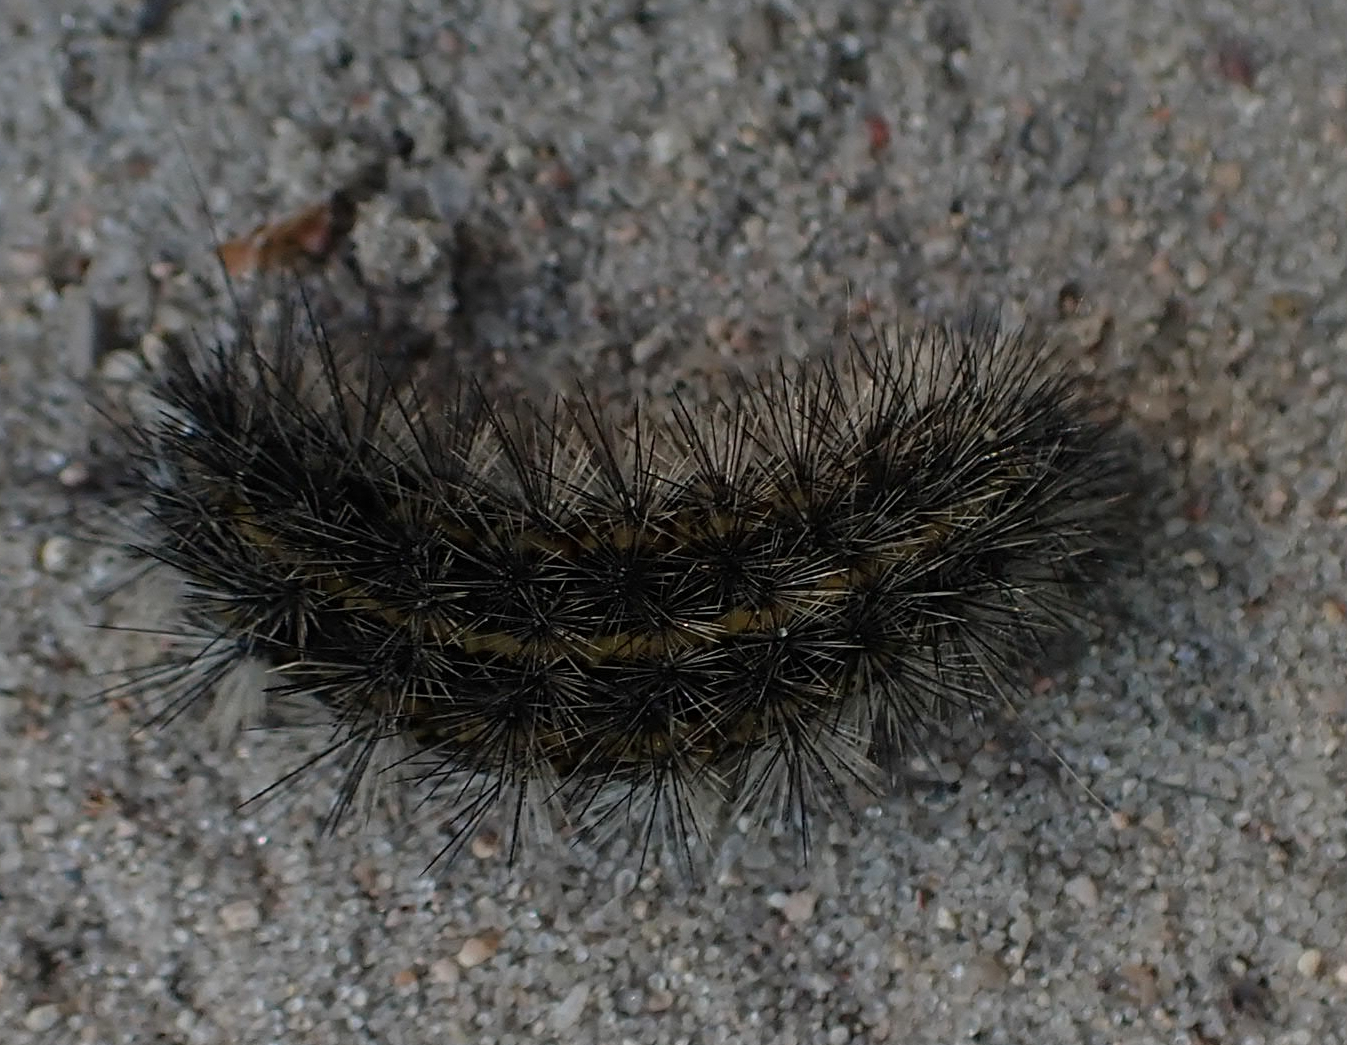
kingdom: Animalia
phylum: Arthropoda
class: Insecta
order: Lepidoptera
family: Erebidae
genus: Spilosoma
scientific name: Spilosoma dubia
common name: Dubious tiger moth
